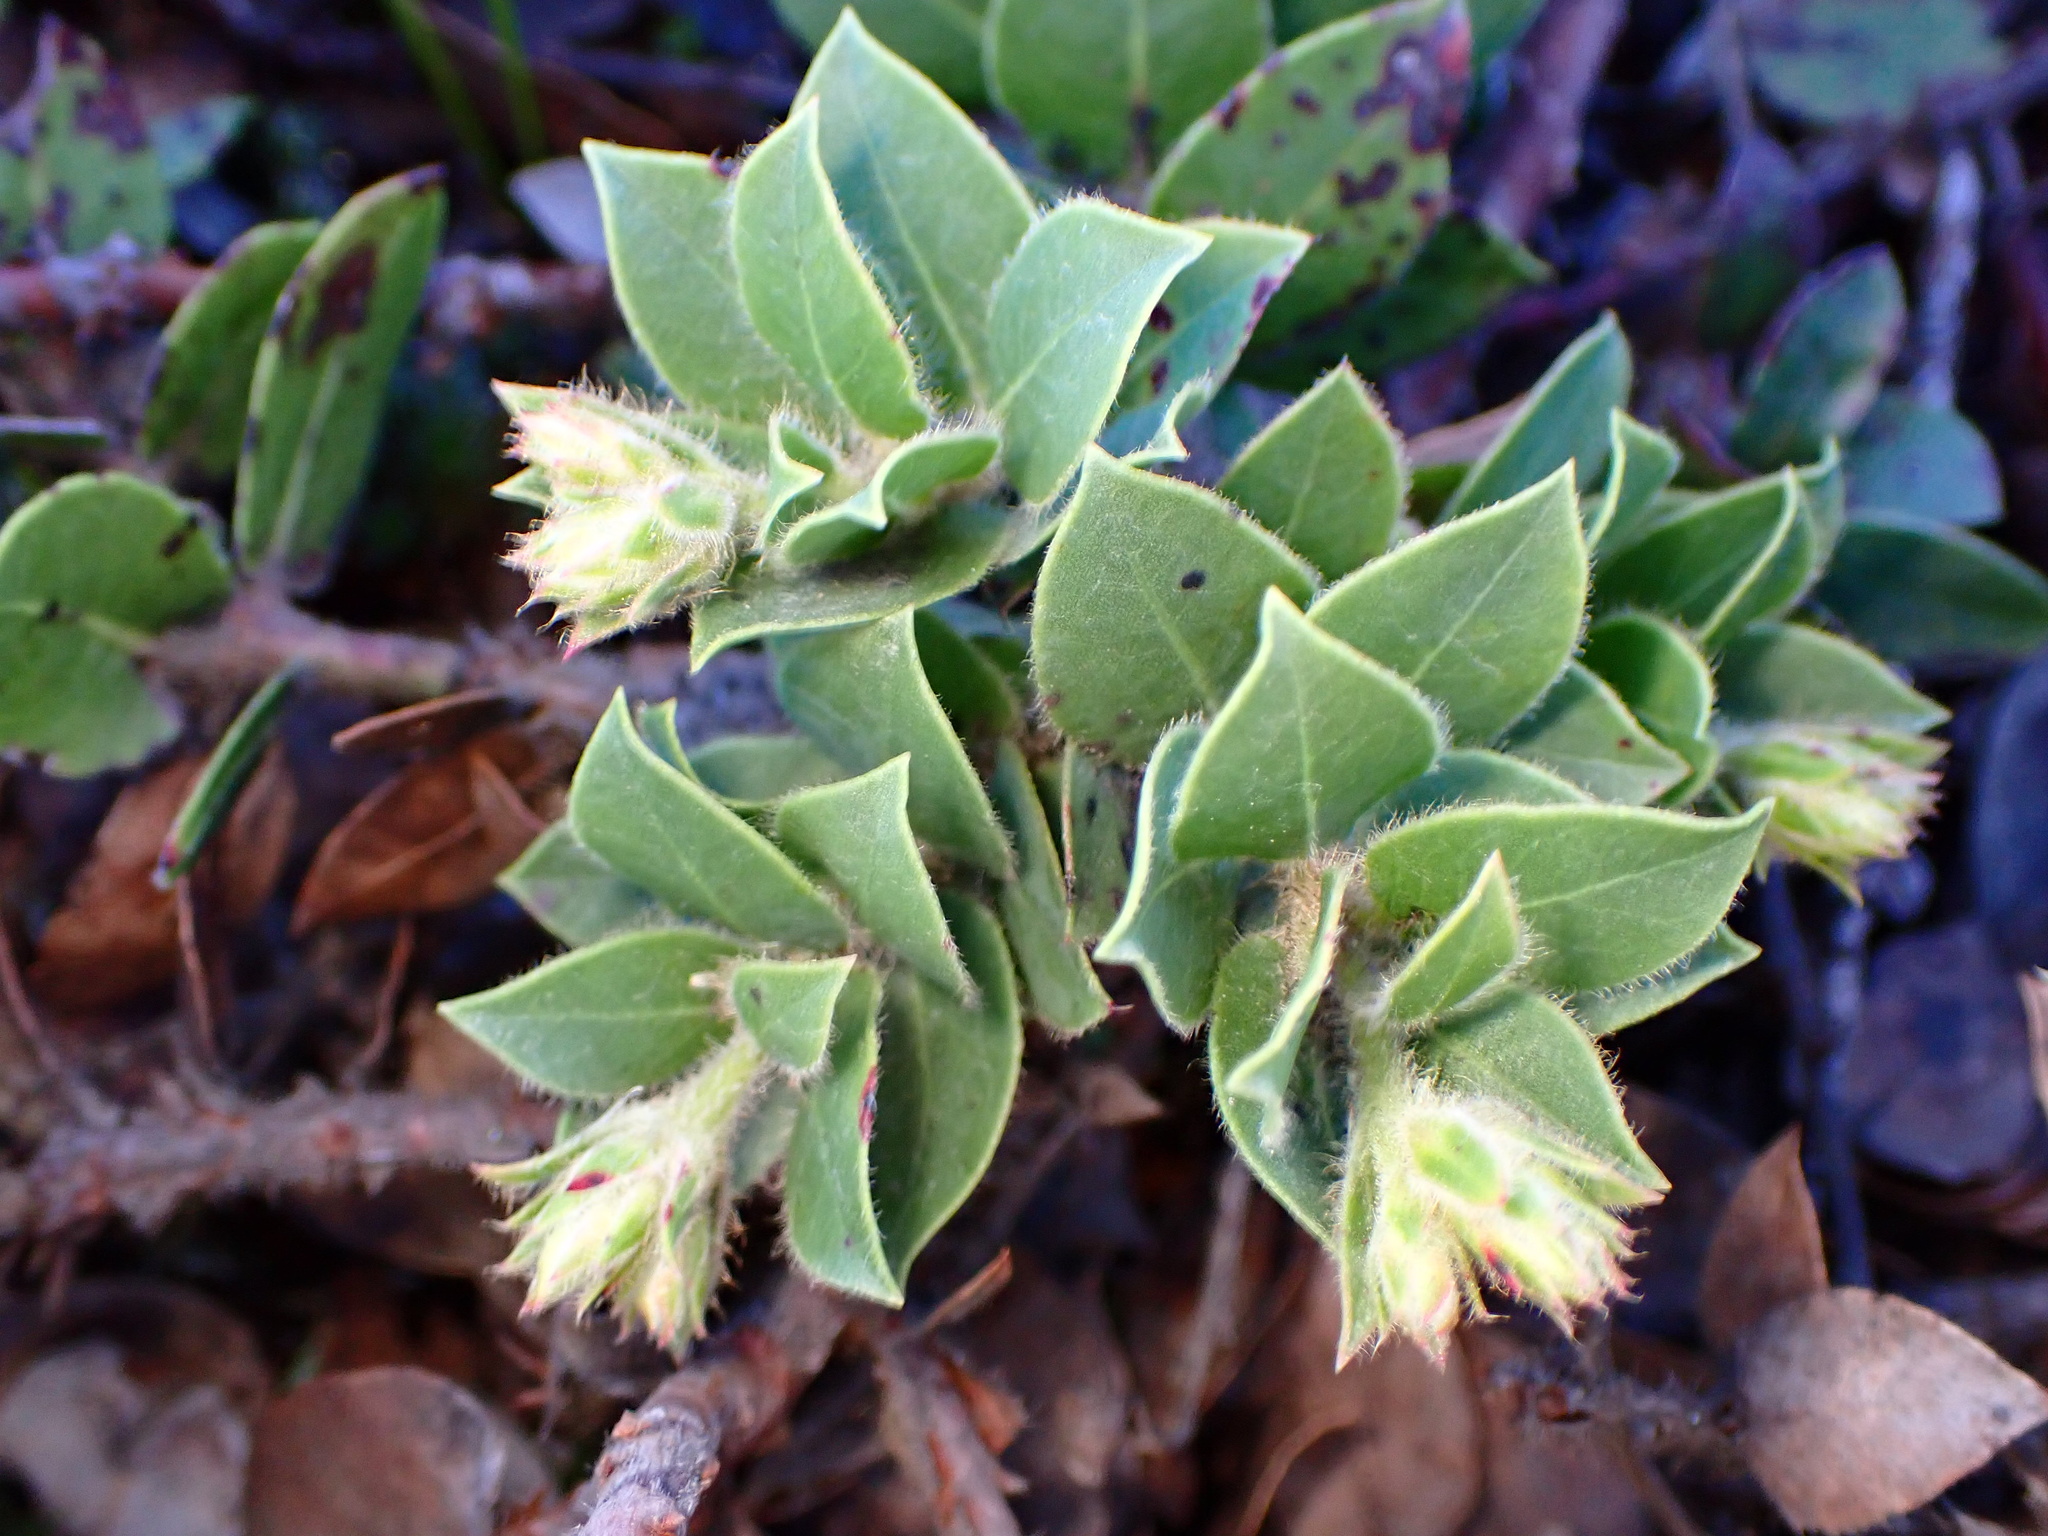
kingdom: Plantae
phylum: Tracheophyta
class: Magnoliopsida
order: Ericales
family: Ericaceae
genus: Arctostaphylos
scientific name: Arctostaphylos imbricata
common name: San bruno mountain manzanita
